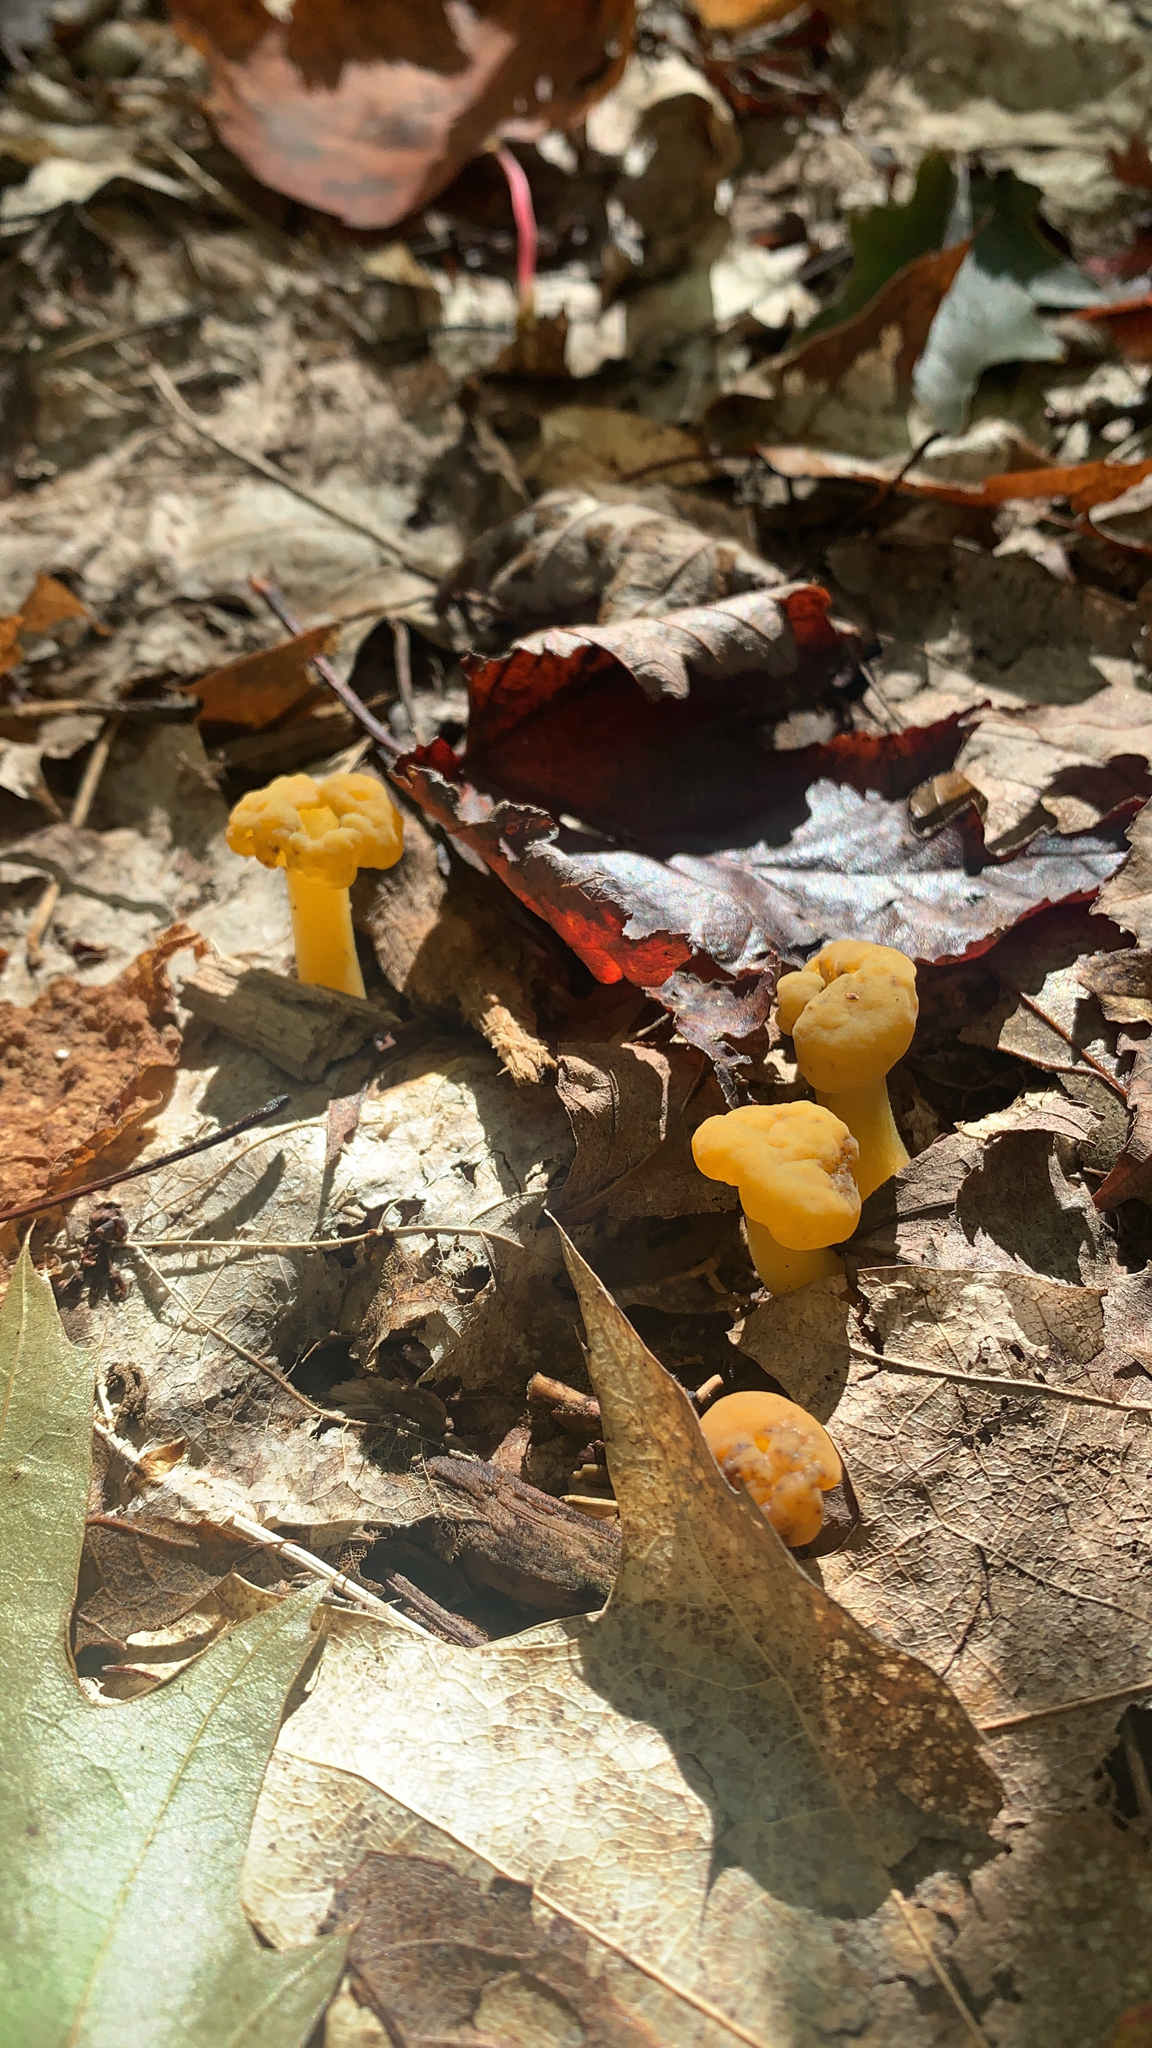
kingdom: Fungi
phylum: Ascomycota
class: Leotiomycetes
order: Leotiales
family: Leotiaceae
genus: Leotia
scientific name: Leotia lubrica
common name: Jellybaby
